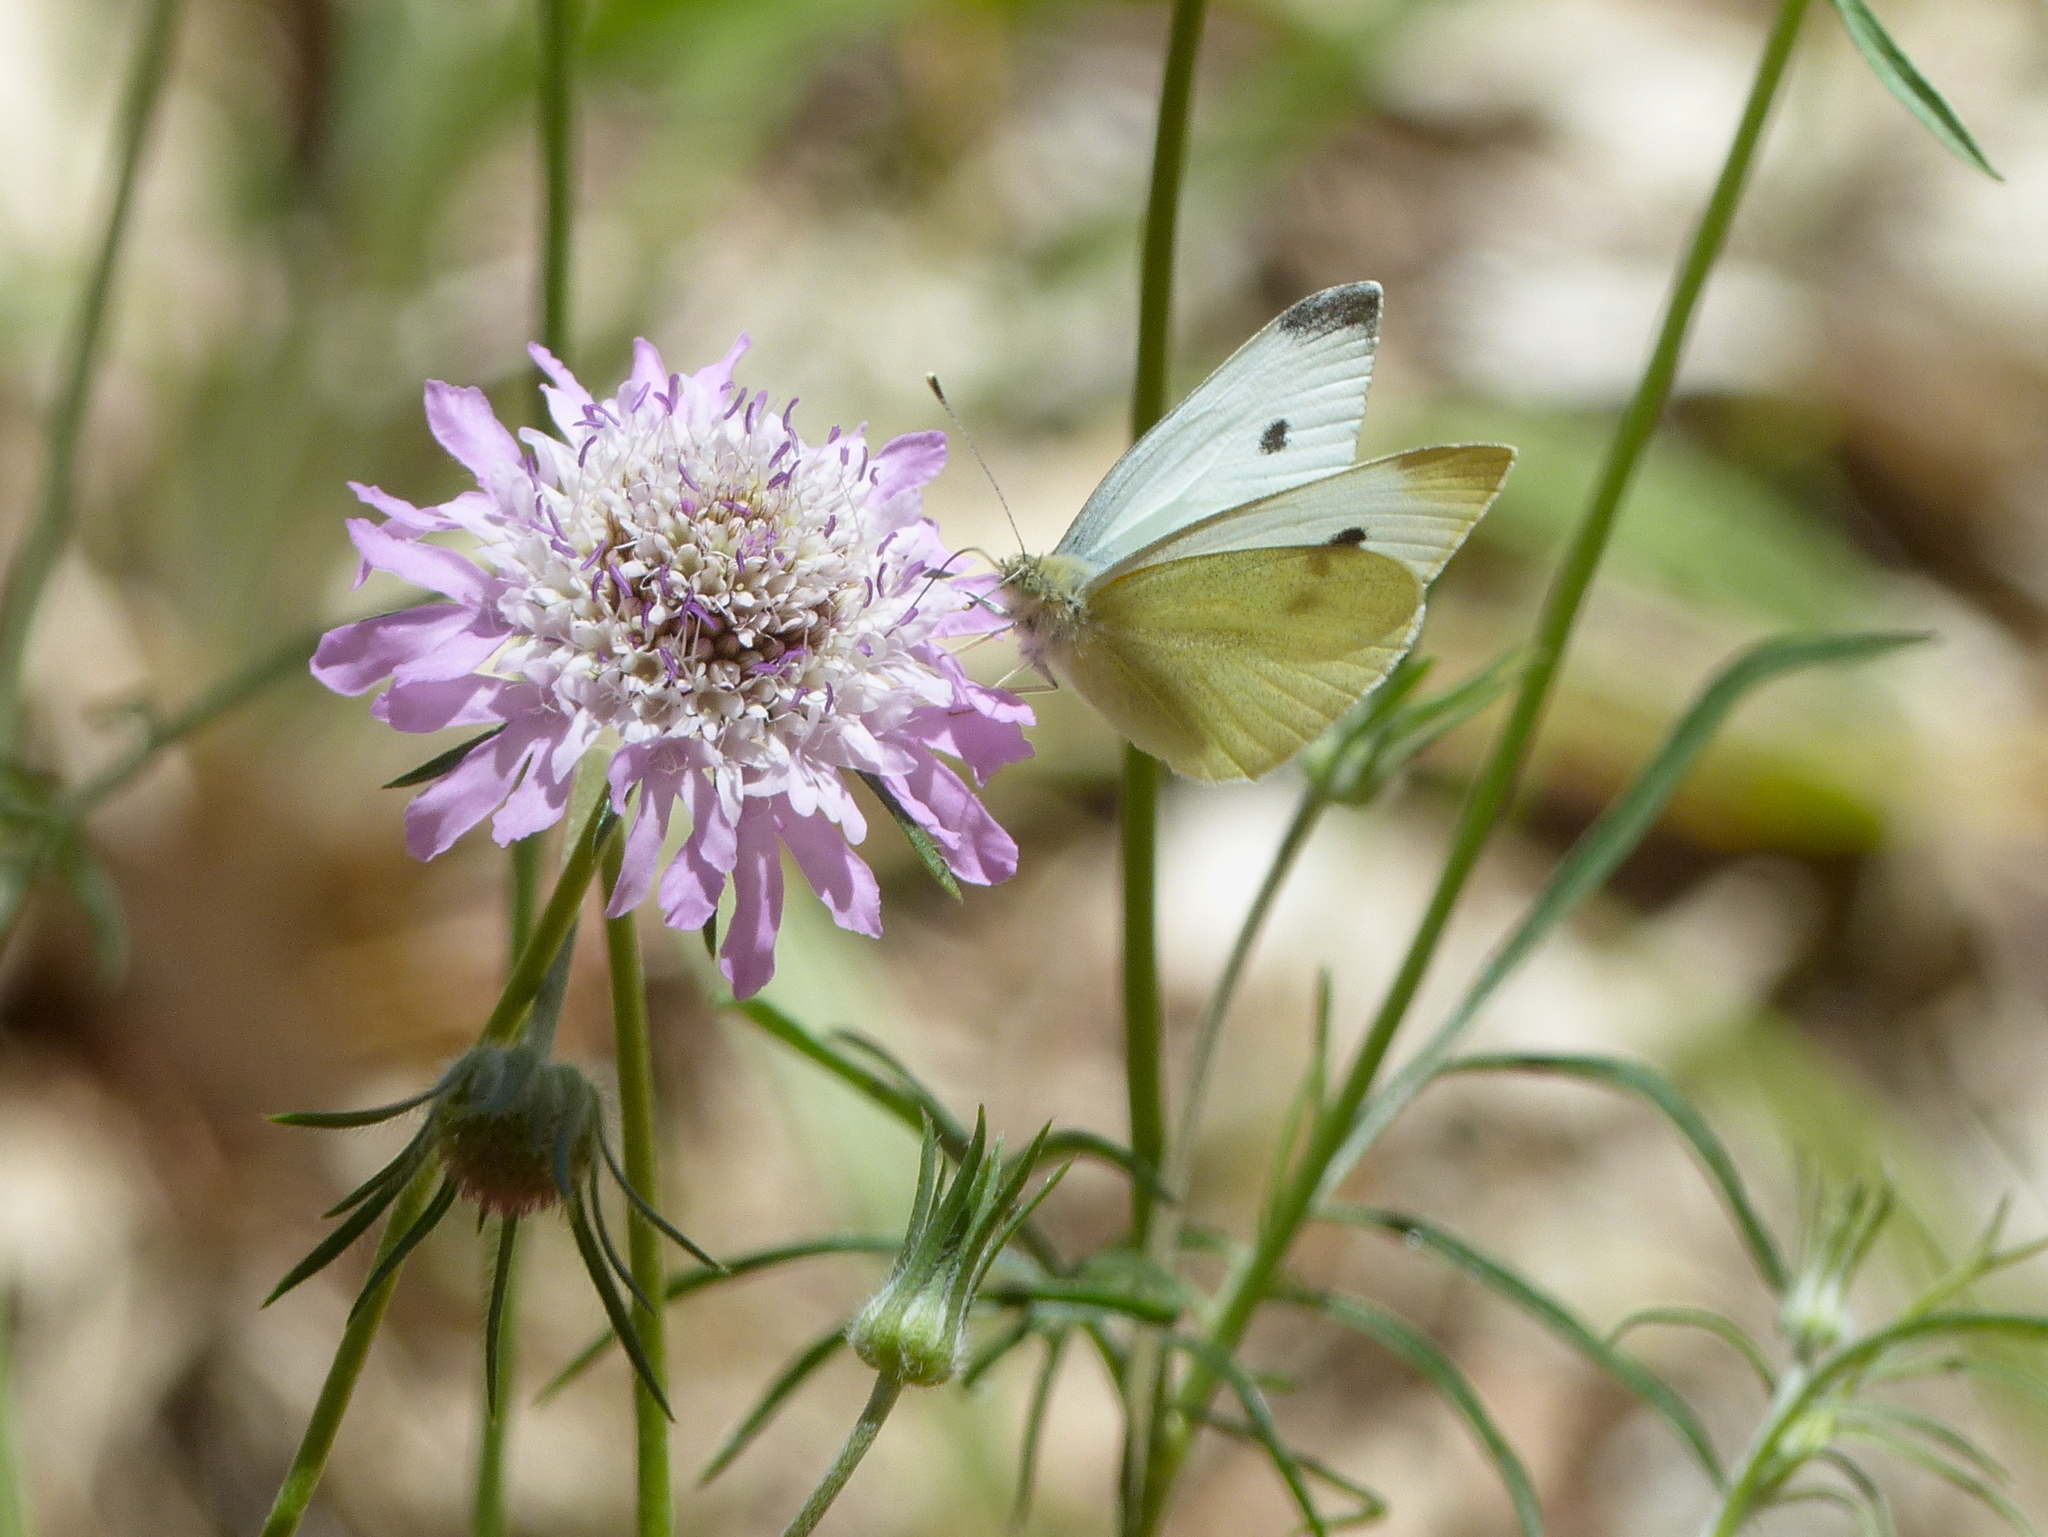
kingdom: Animalia
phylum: Arthropoda
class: Insecta
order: Lepidoptera
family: Pieridae
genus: Pieris
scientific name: Pieris rapae
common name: Small white
